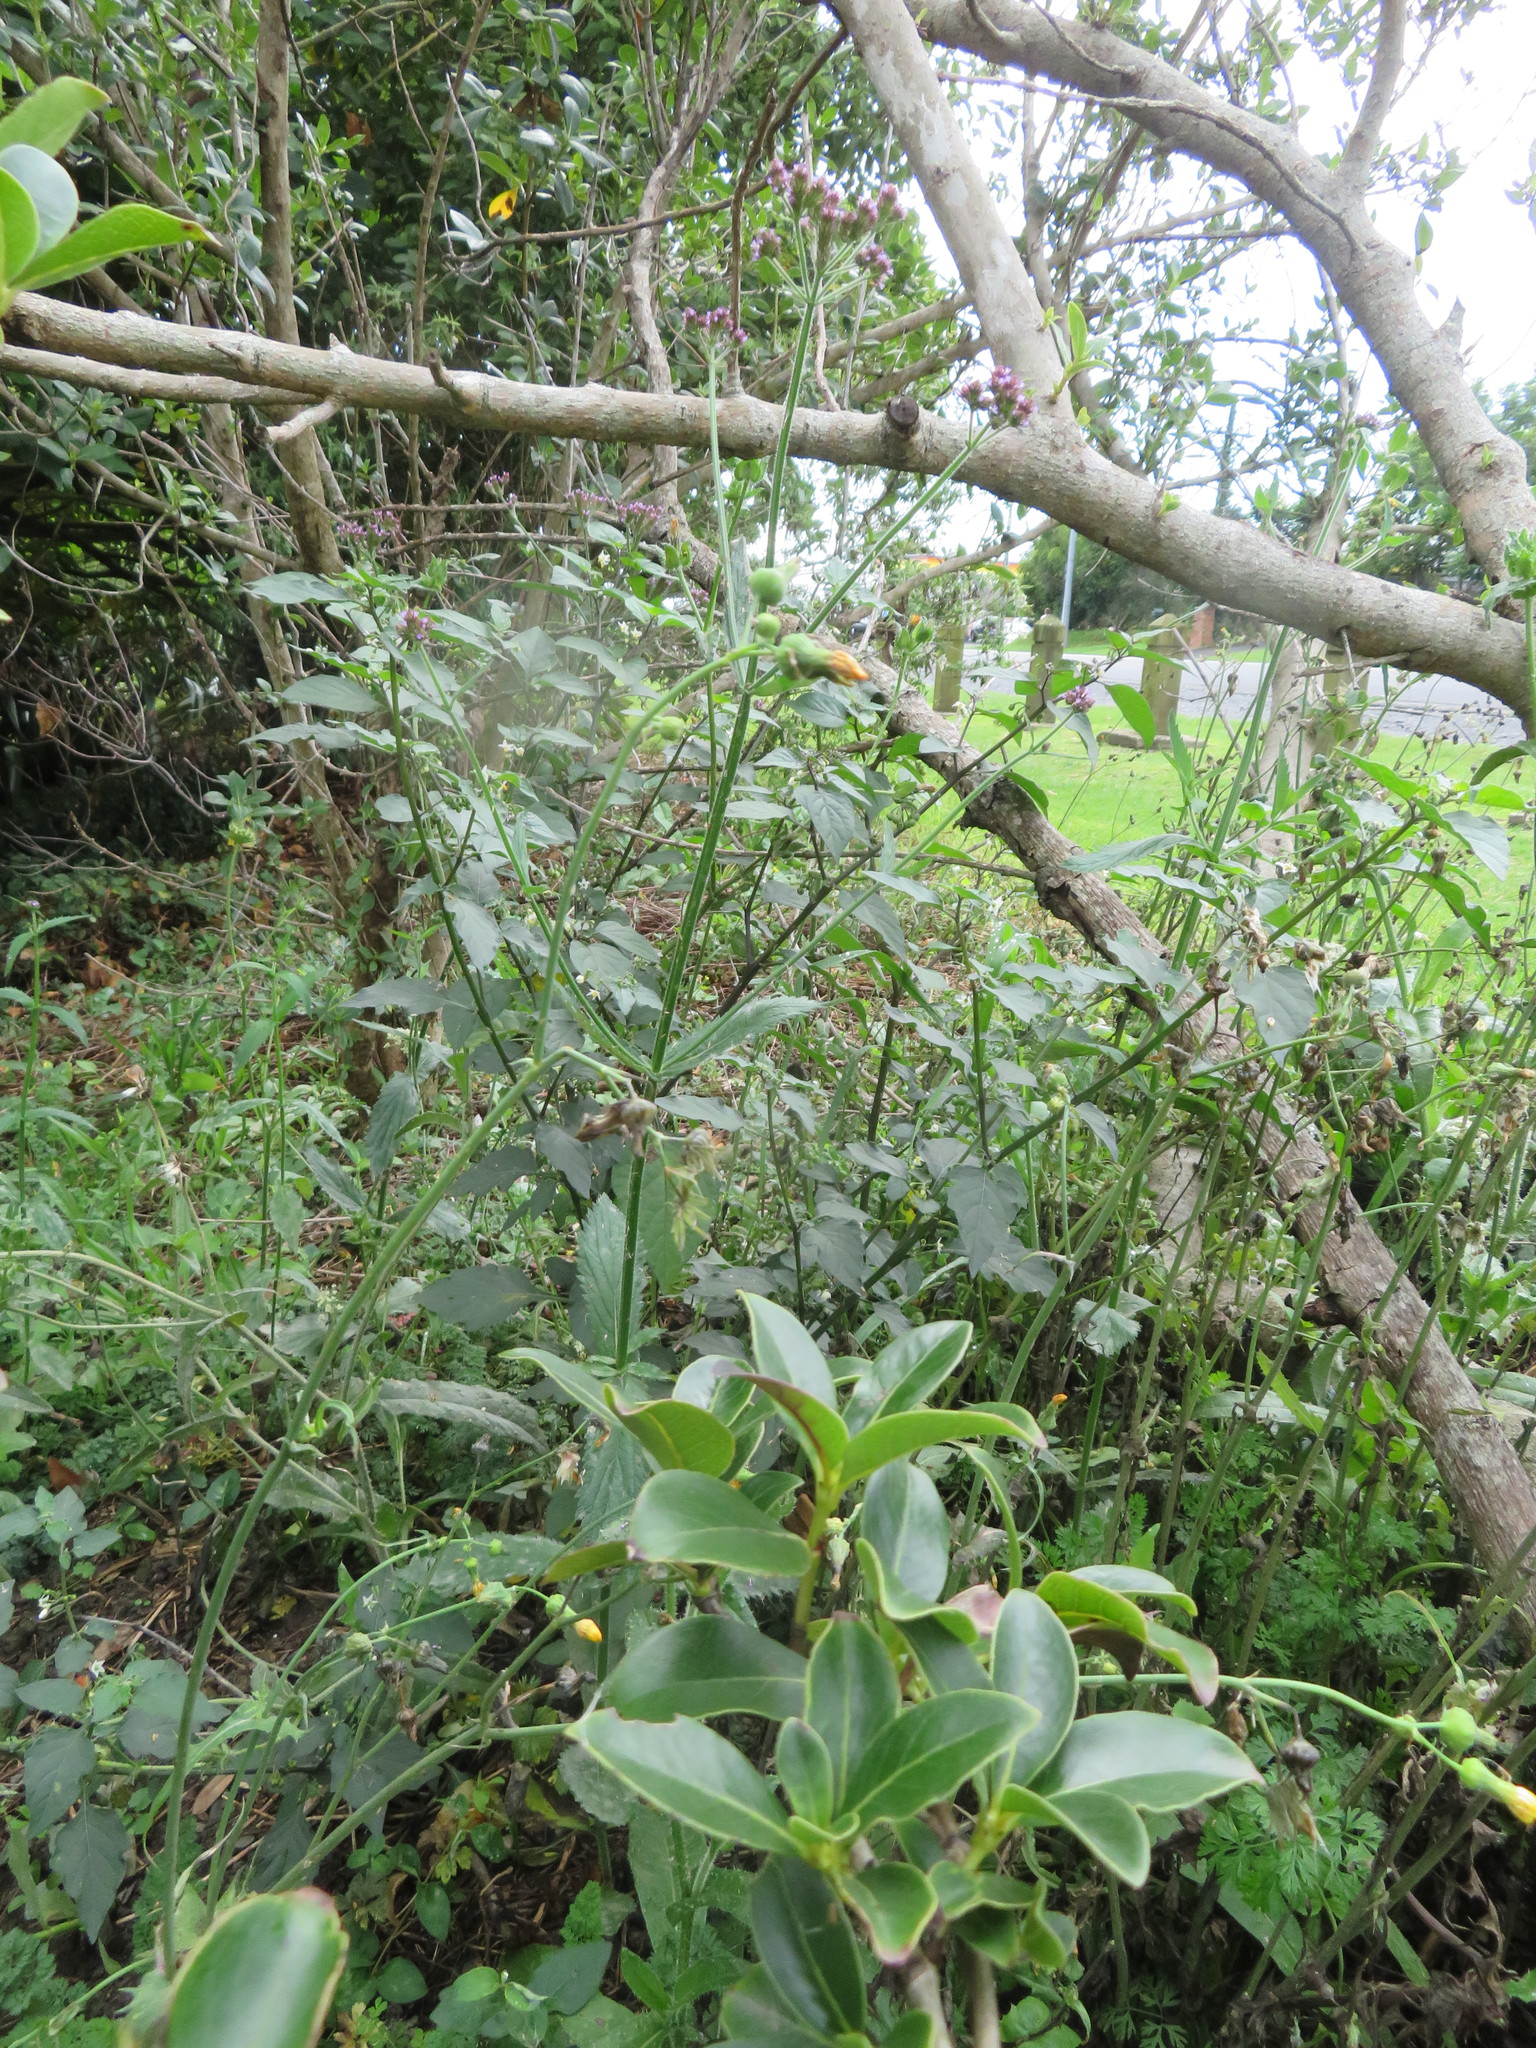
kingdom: Plantae
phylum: Tracheophyta
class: Magnoliopsida
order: Lamiales
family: Verbenaceae
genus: Verbena
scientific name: Verbena incompta
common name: Purpletop vervain
